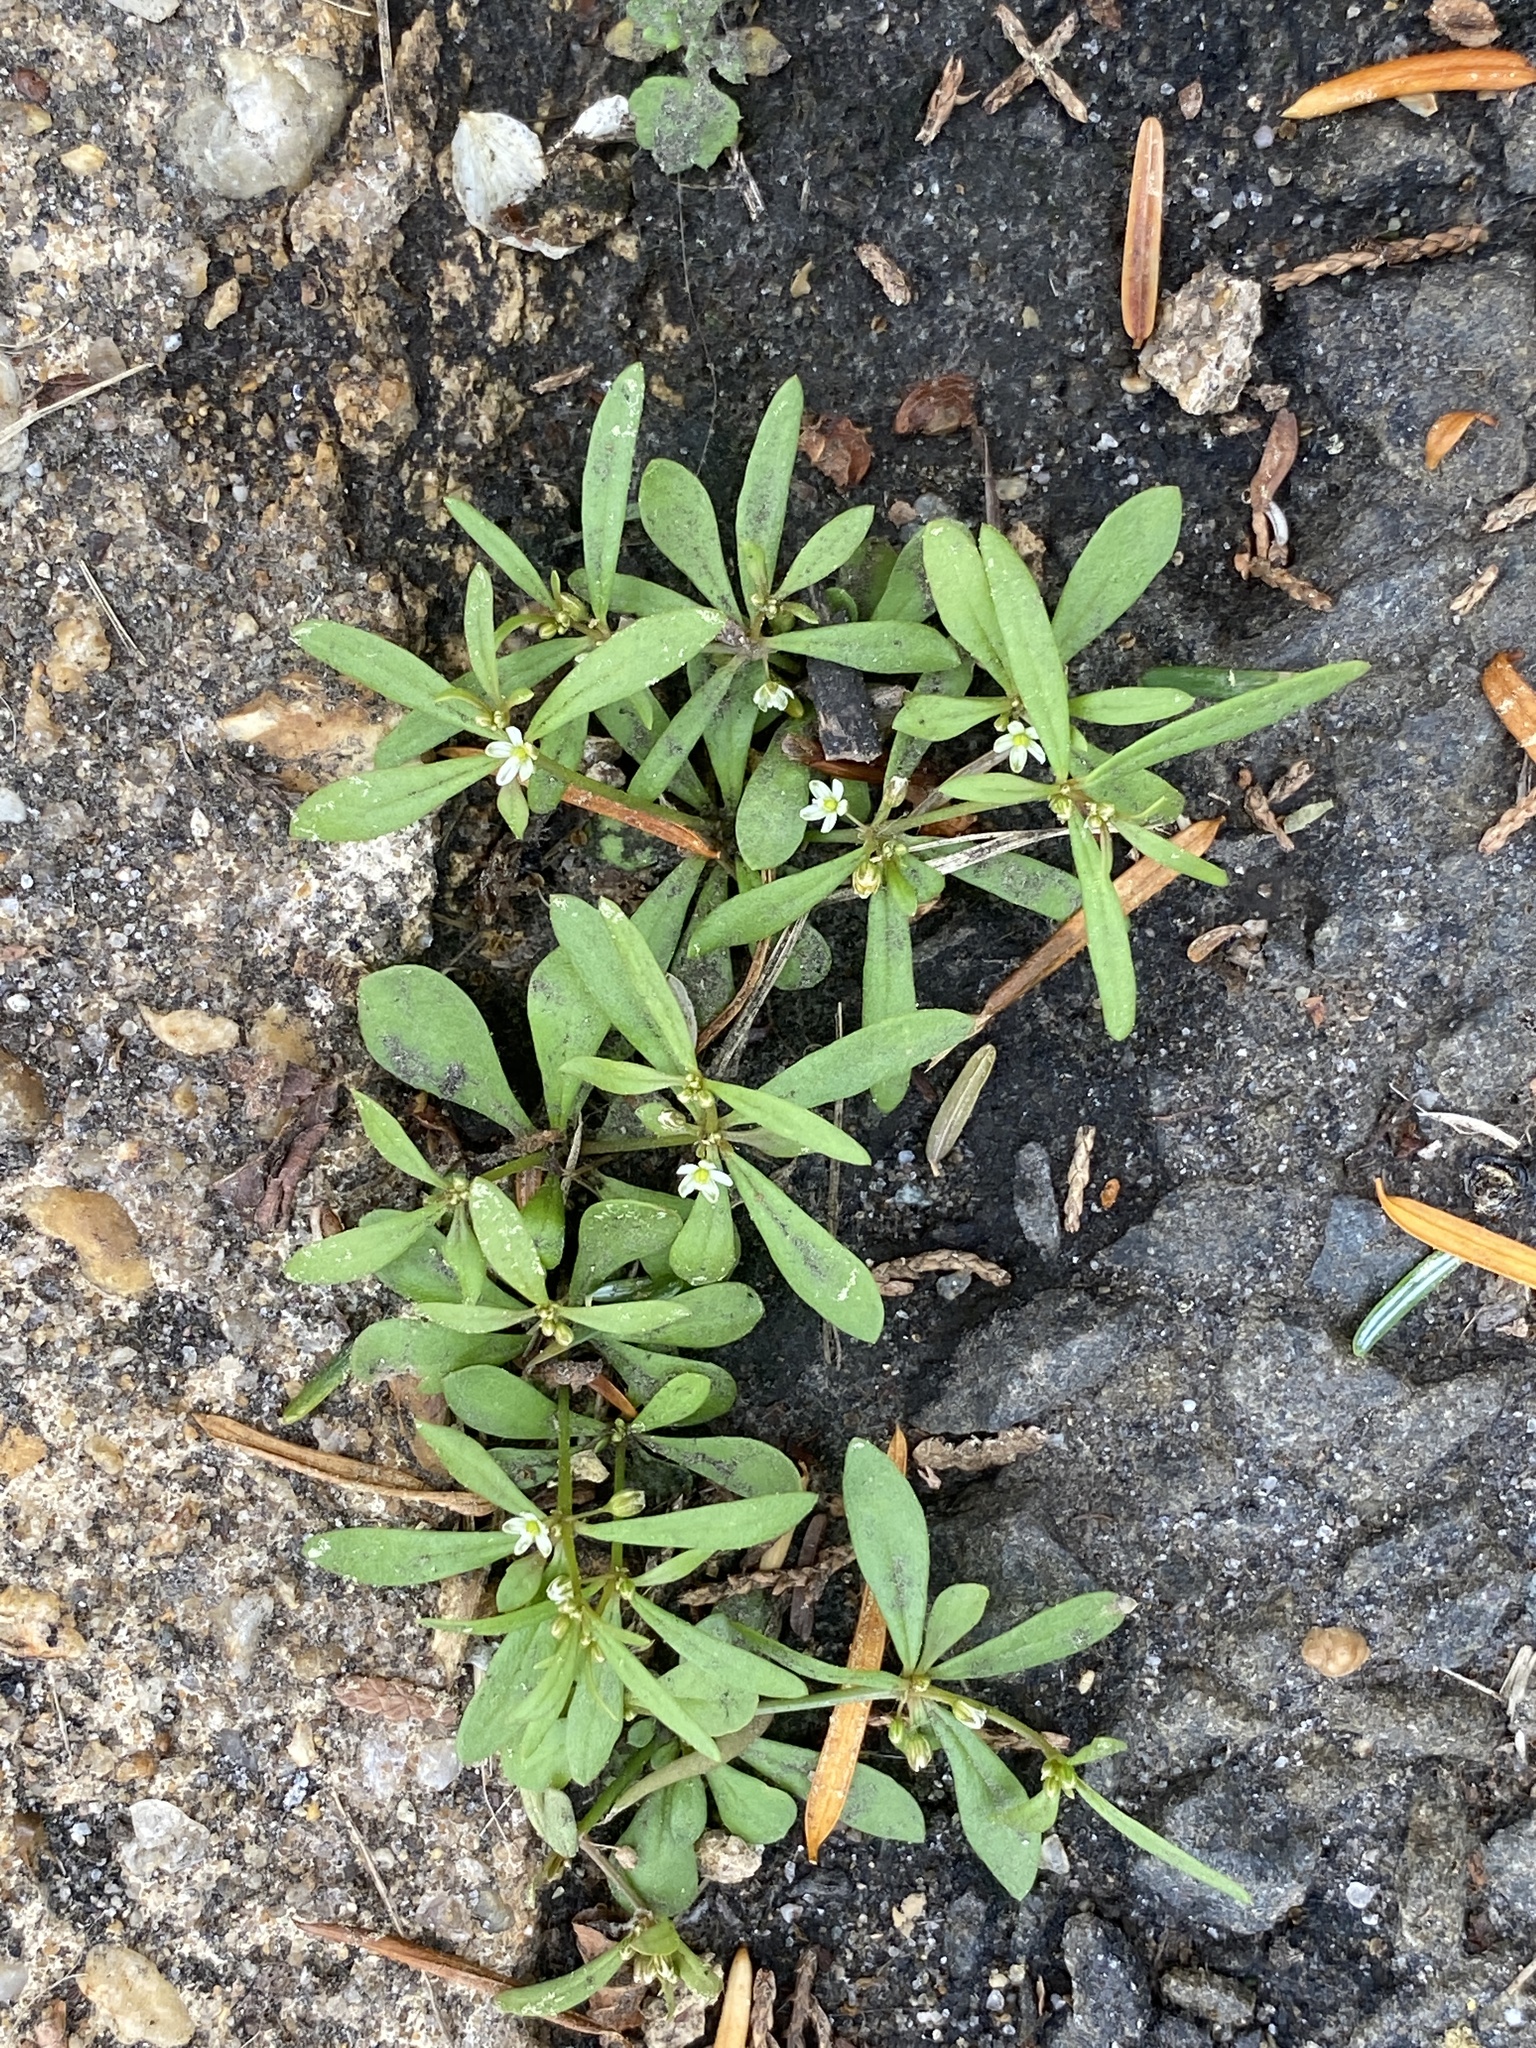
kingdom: Plantae
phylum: Tracheophyta
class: Magnoliopsida
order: Caryophyllales
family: Molluginaceae
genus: Mollugo
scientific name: Mollugo verticillata
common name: Green carpetweed
